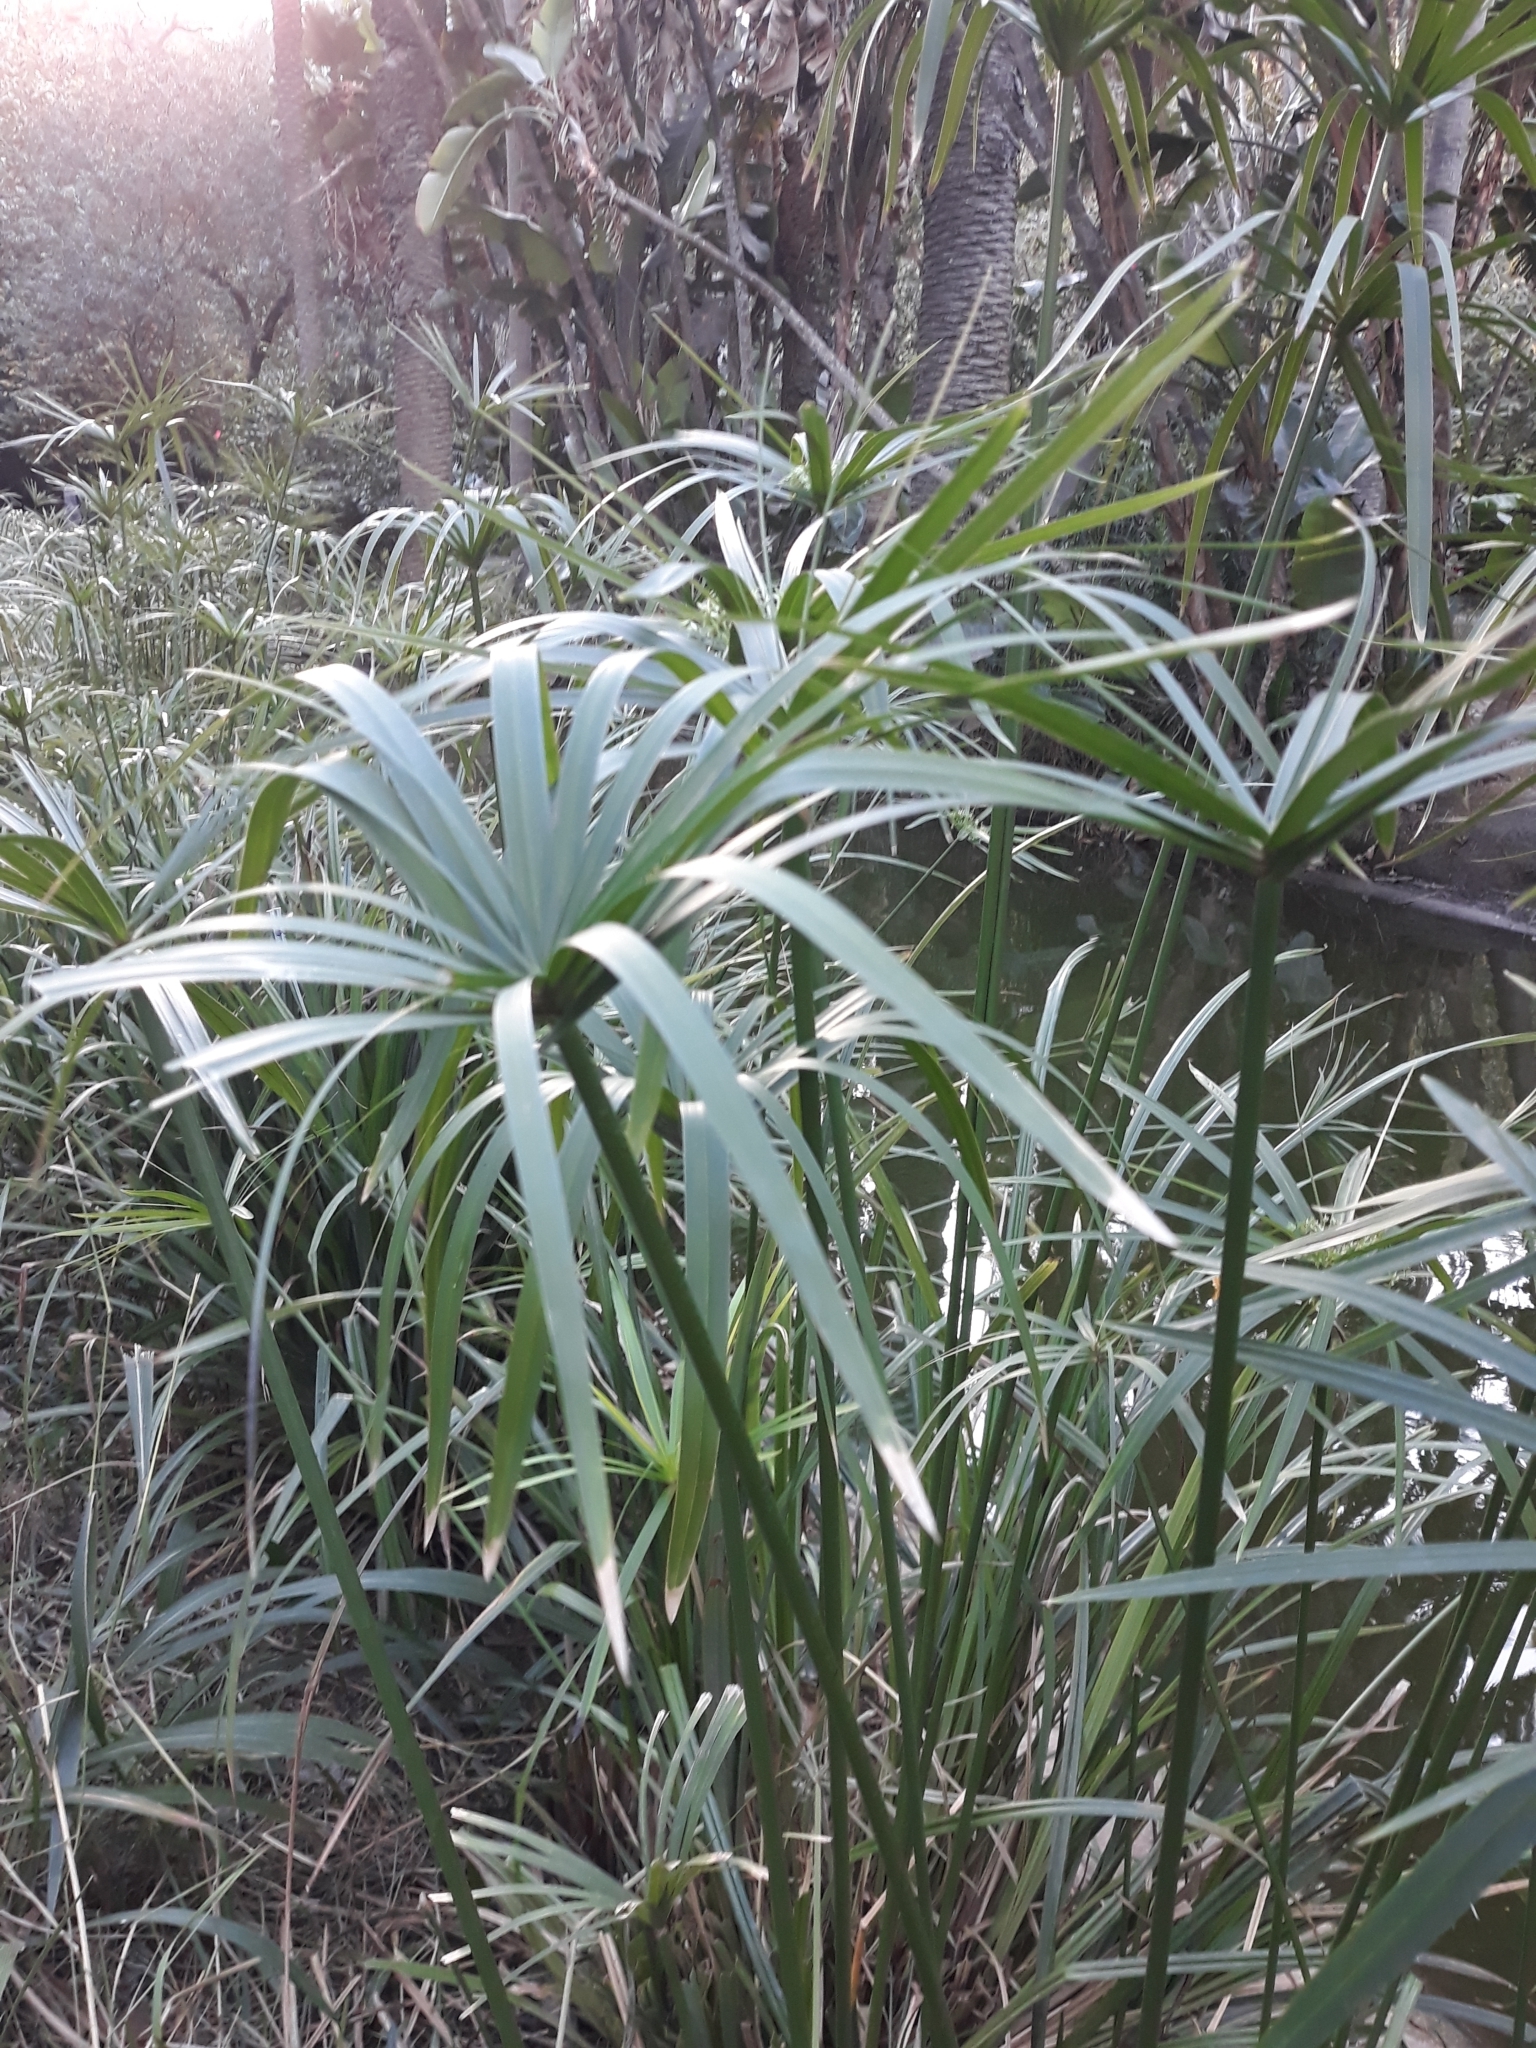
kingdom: Plantae
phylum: Tracheophyta
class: Liliopsida
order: Poales
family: Cyperaceae
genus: Cyperus
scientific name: Cyperus alternifolius
